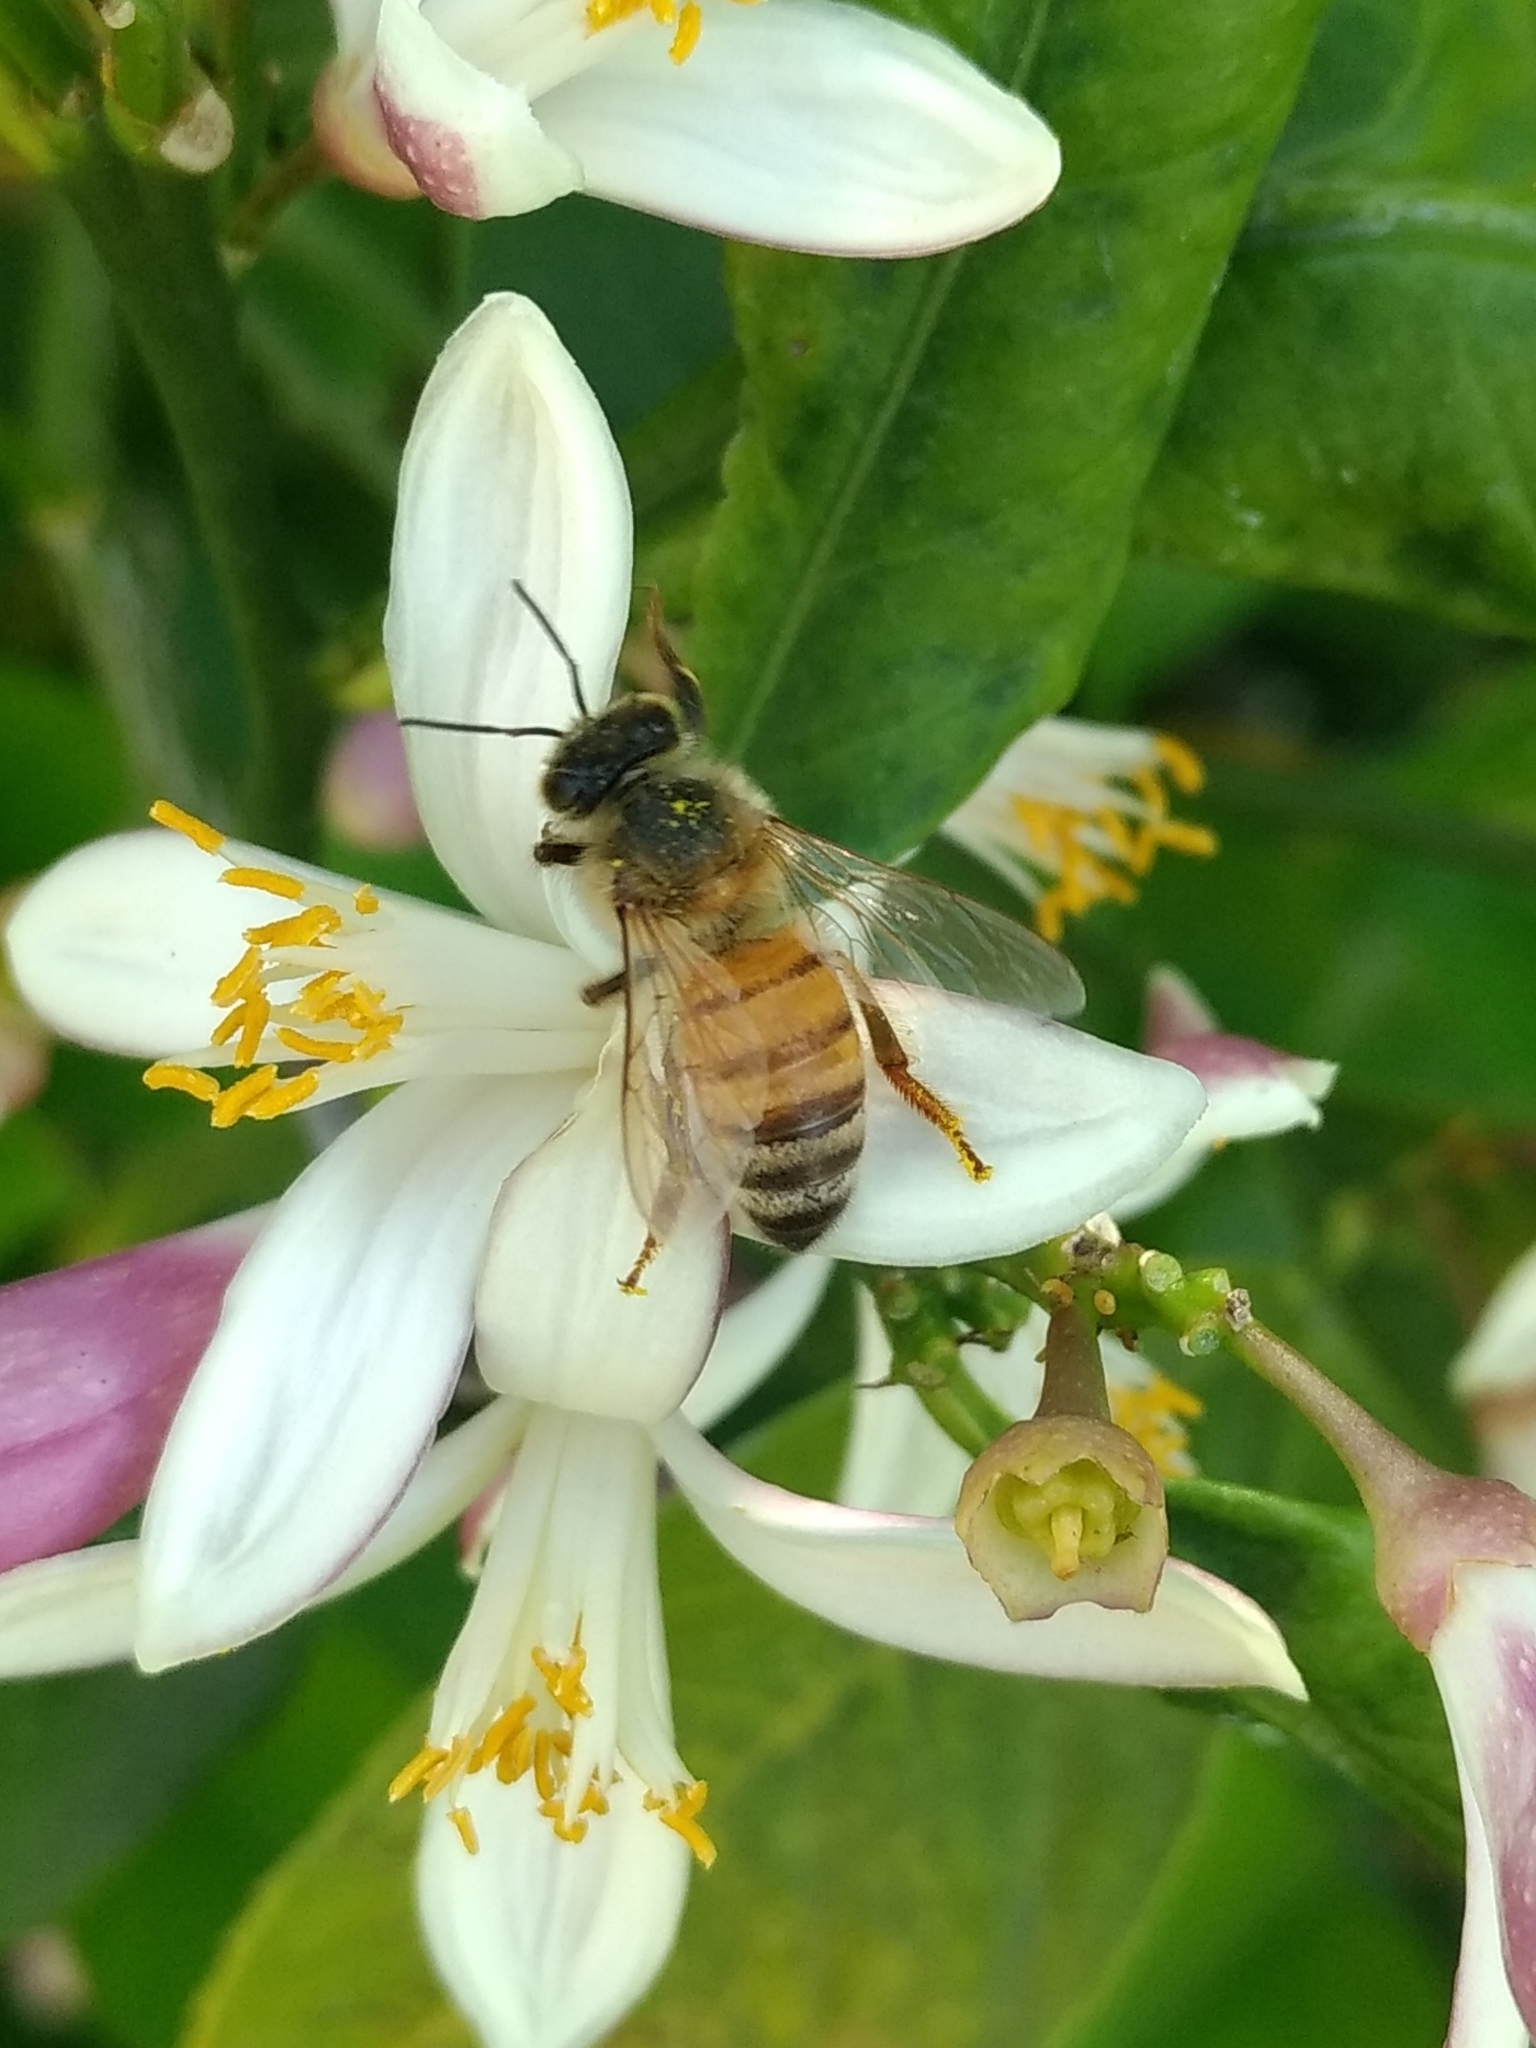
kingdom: Animalia
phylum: Arthropoda
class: Insecta
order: Hymenoptera
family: Apidae
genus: Apis
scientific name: Apis mellifera
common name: Honey bee
